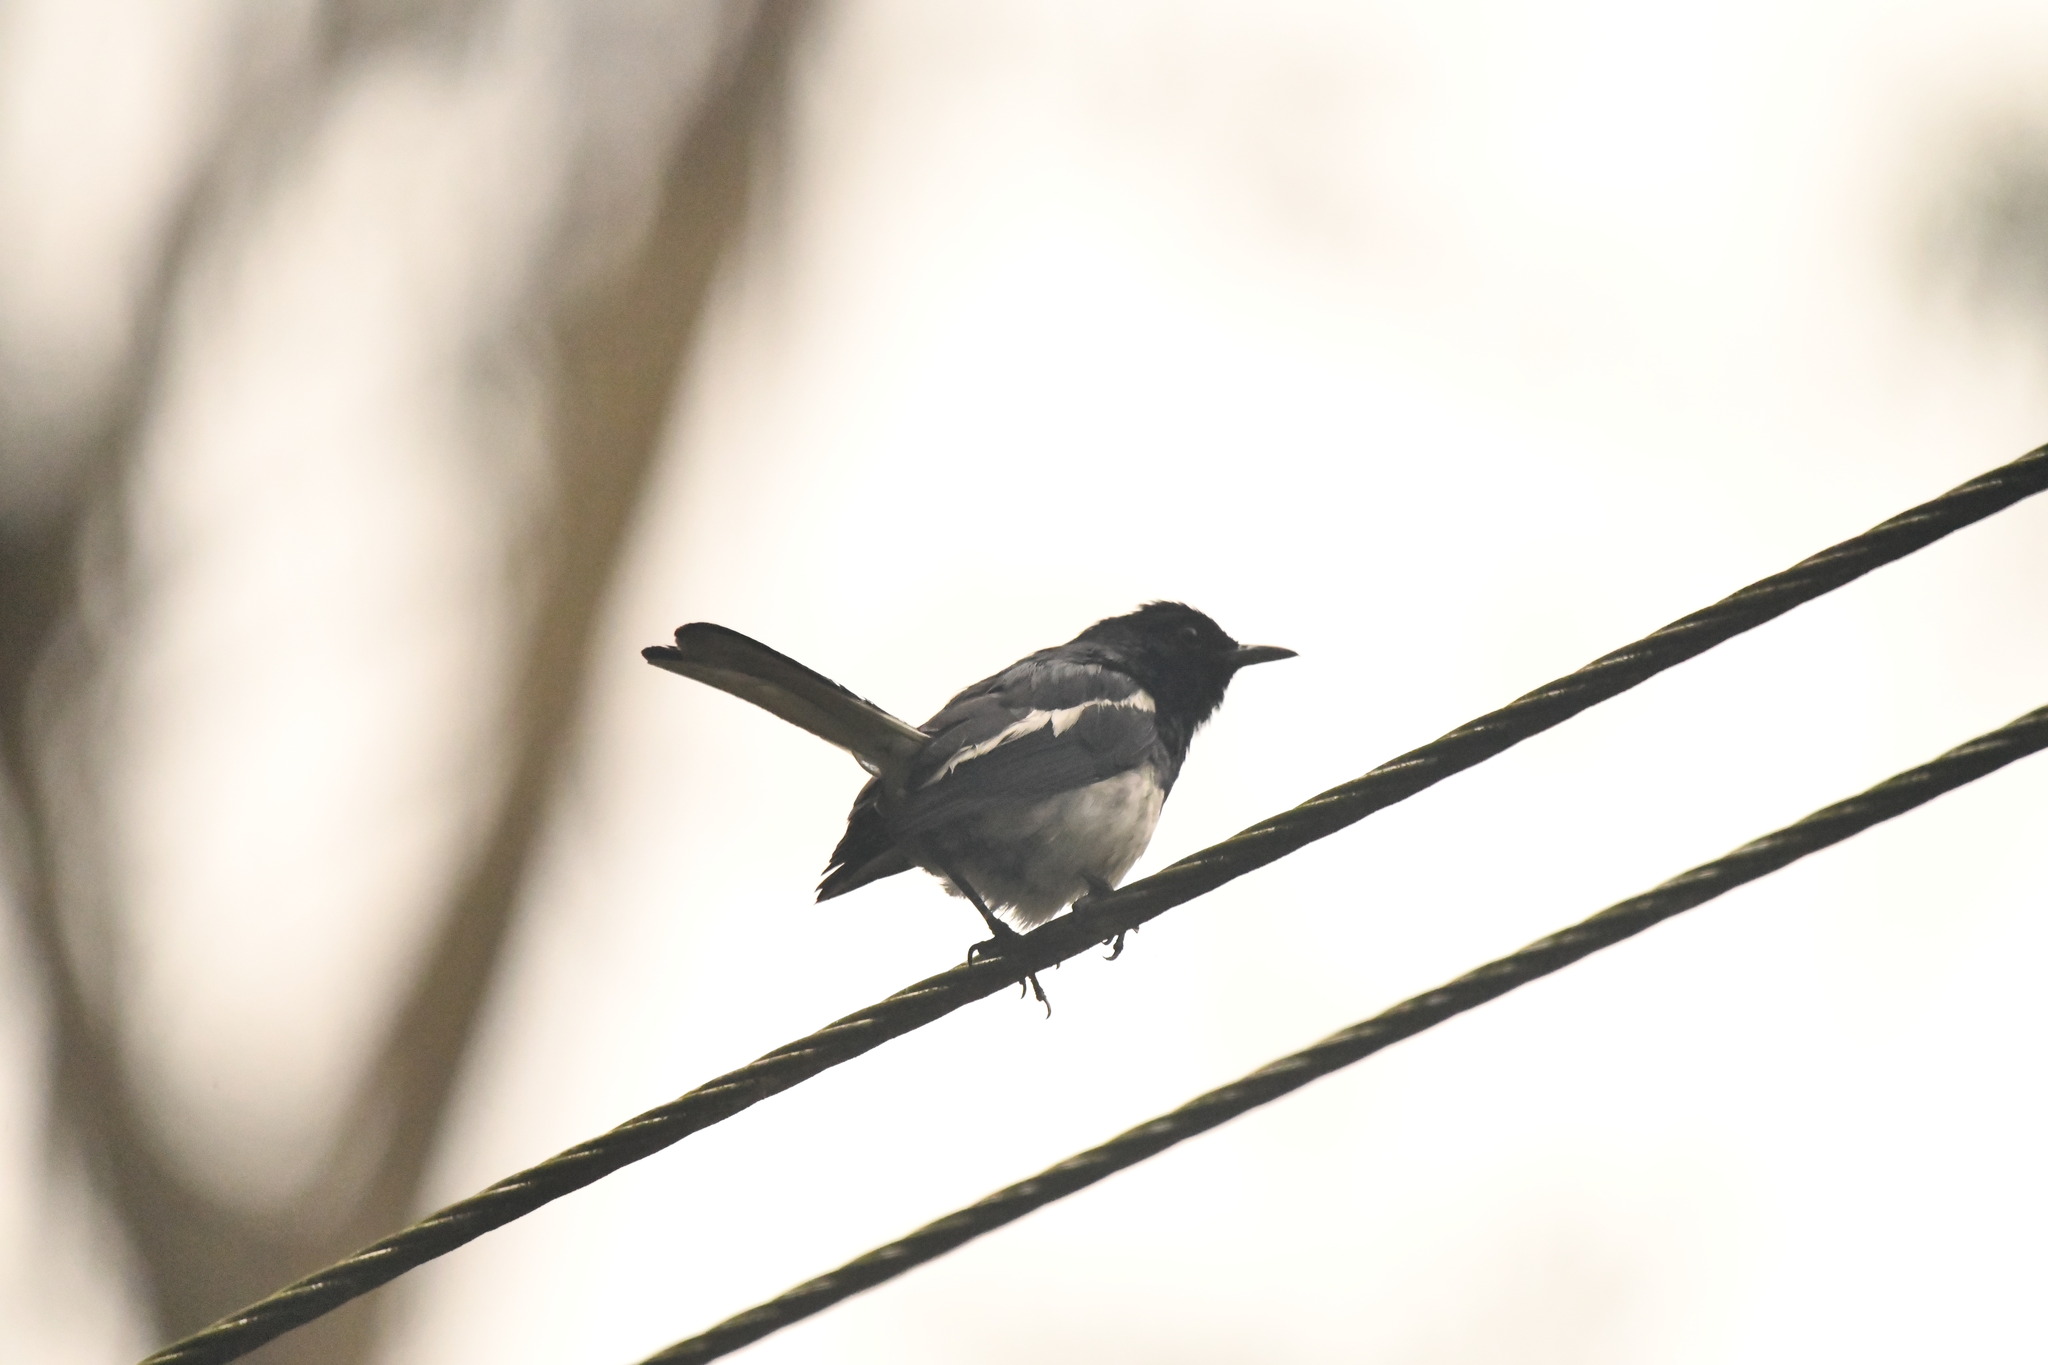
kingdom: Animalia
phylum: Chordata
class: Aves
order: Passeriformes
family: Muscicapidae
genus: Copsychus
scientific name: Copsychus saularis
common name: Oriental magpie-robin
